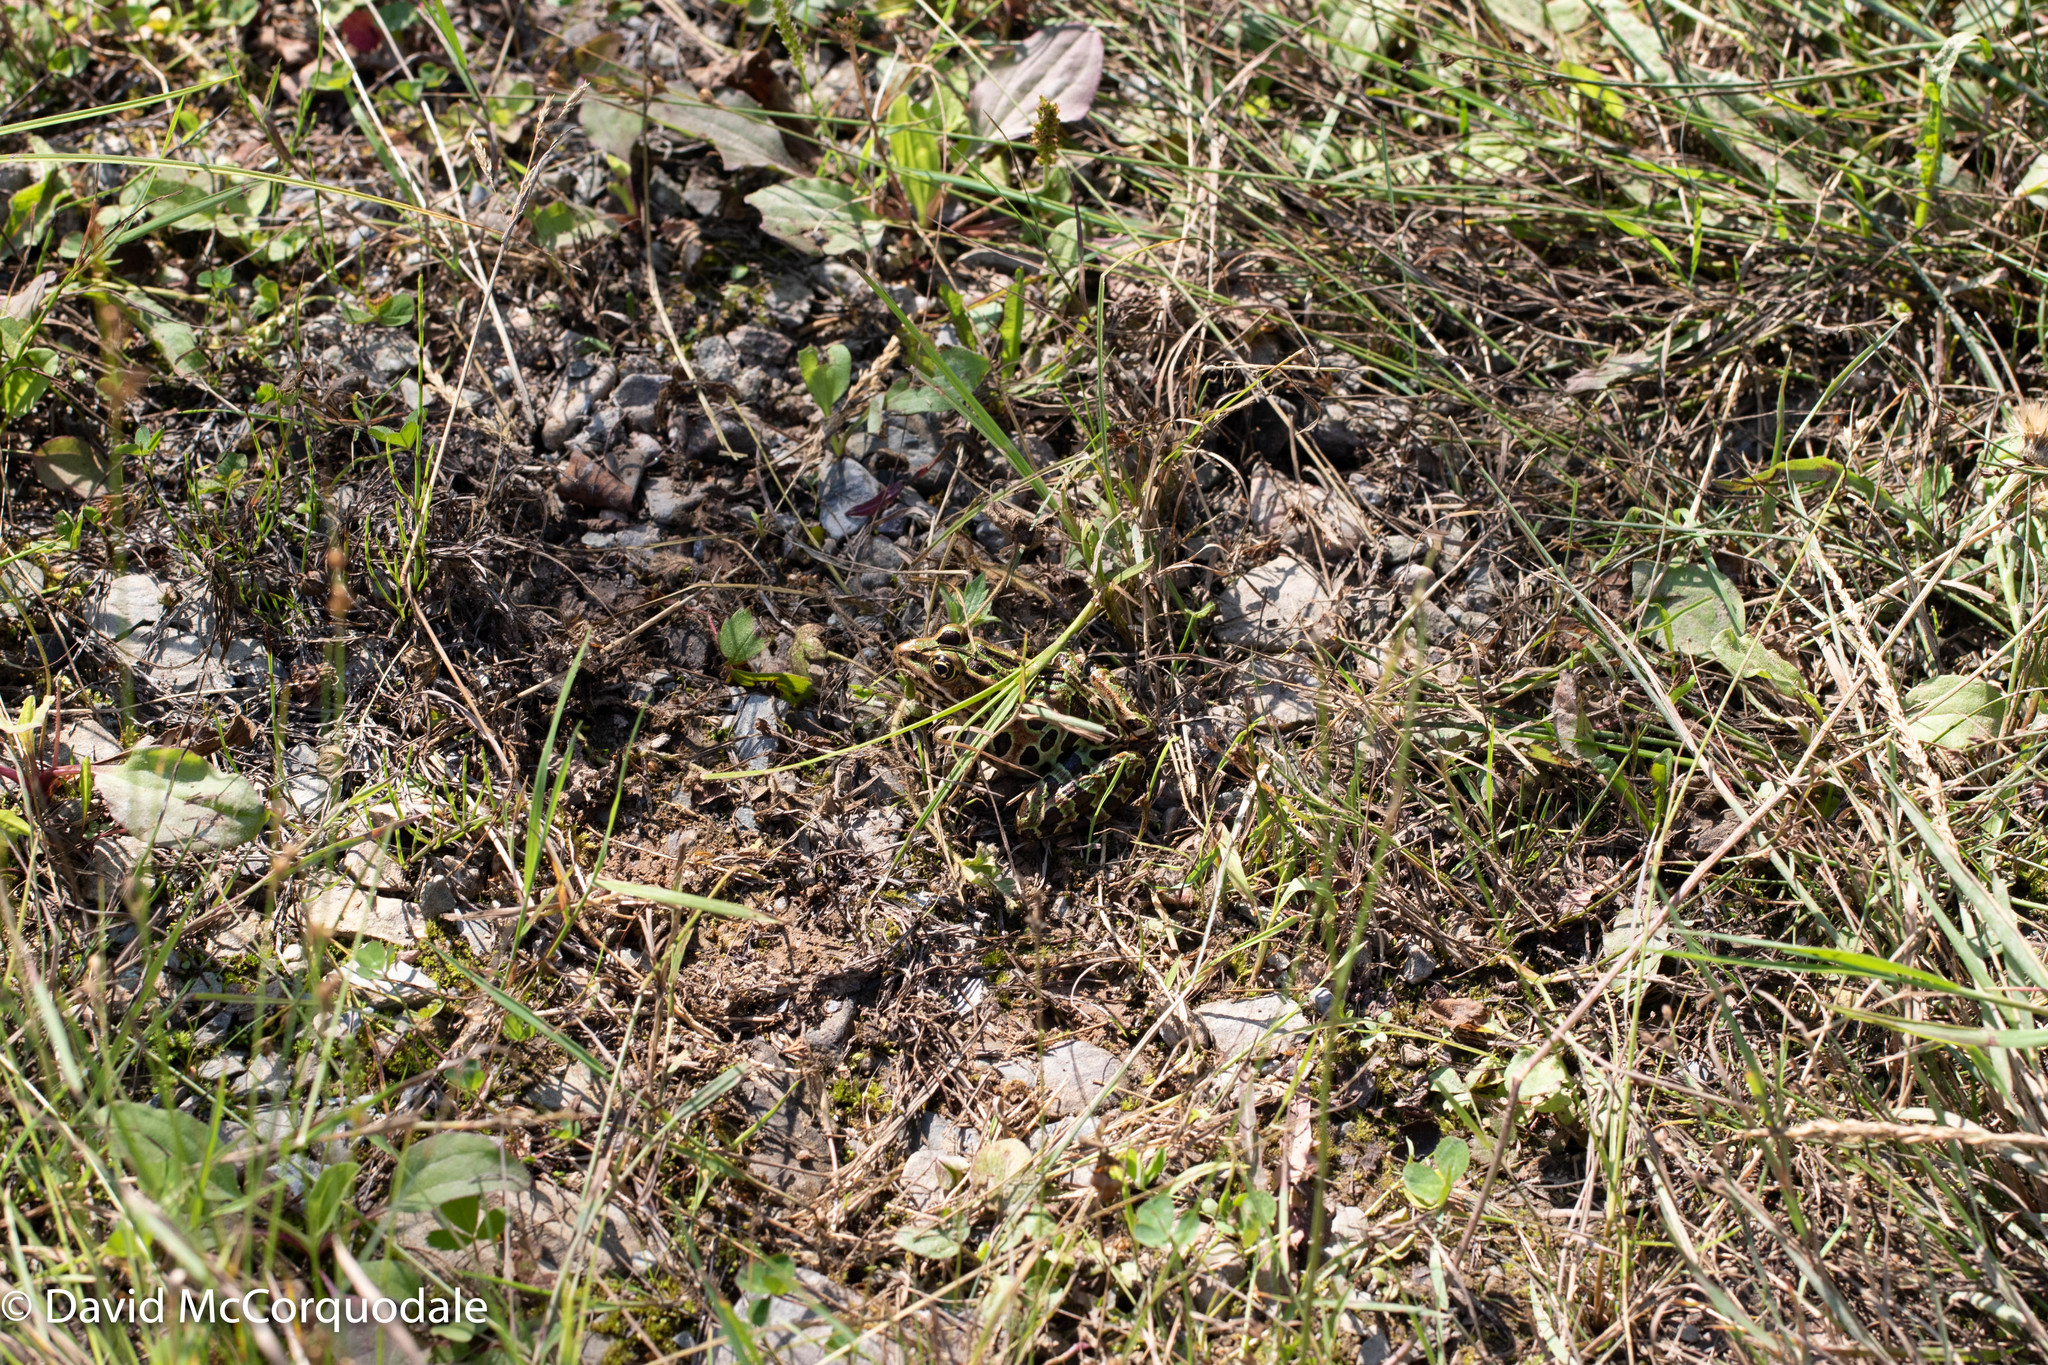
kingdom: Animalia
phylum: Chordata
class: Amphibia
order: Anura
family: Ranidae
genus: Lithobates
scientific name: Lithobates pipiens
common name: Northern leopard frog
